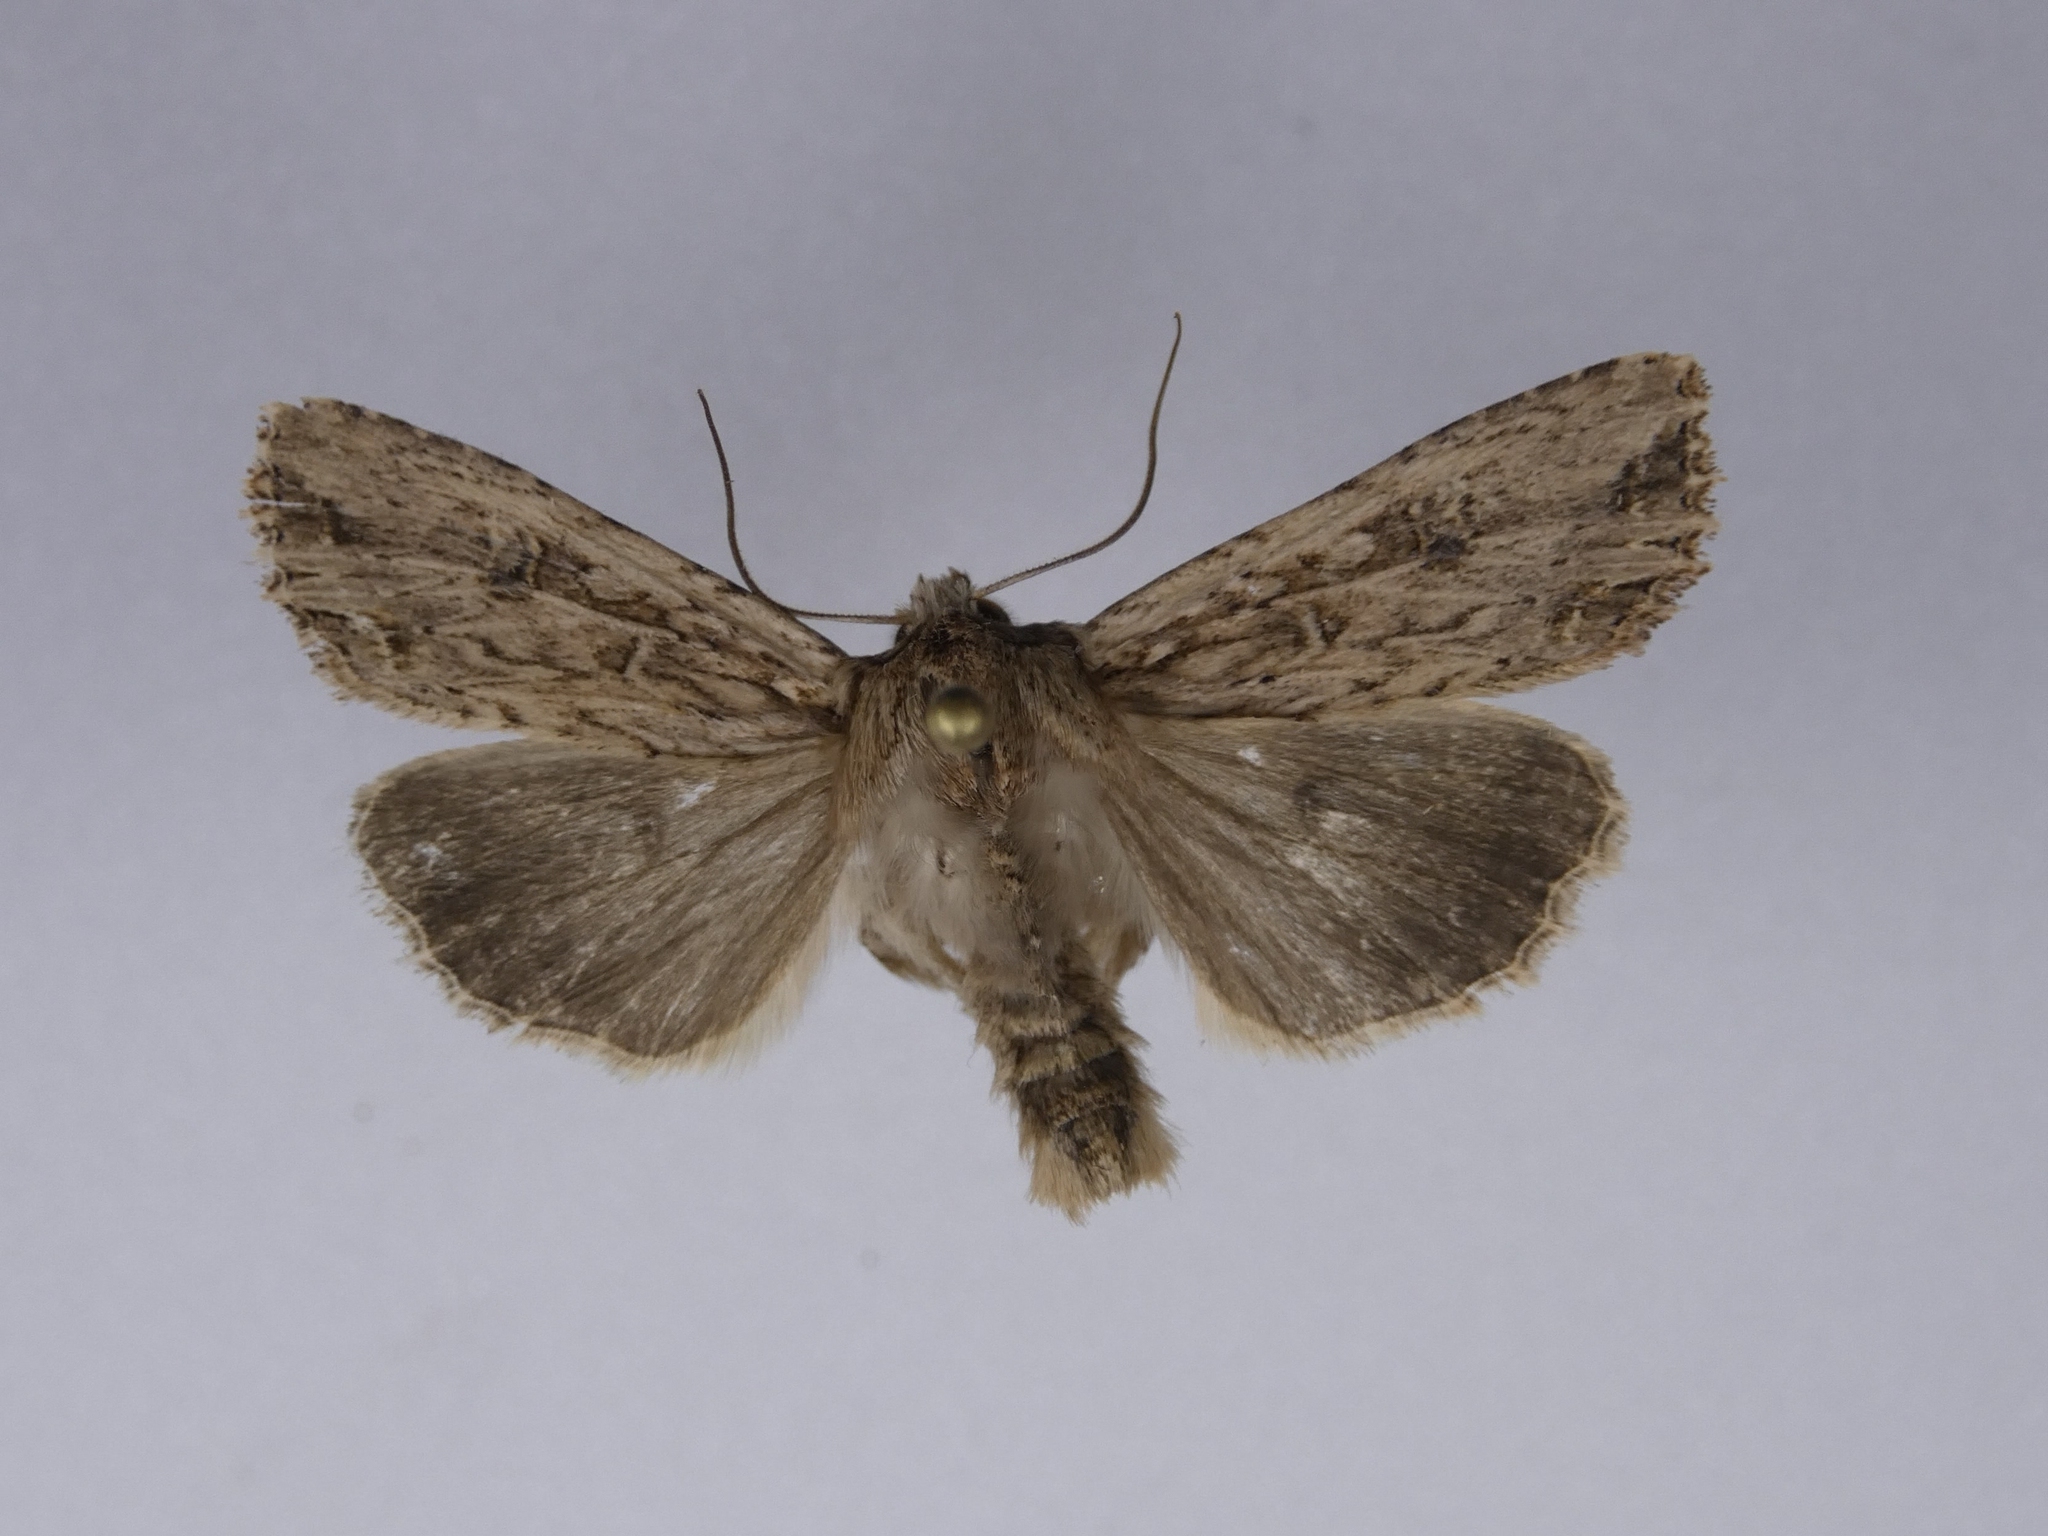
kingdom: Animalia
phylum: Arthropoda
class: Insecta
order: Lepidoptera
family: Noctuidae
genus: Ichneutica
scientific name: Ichneutica lignana
